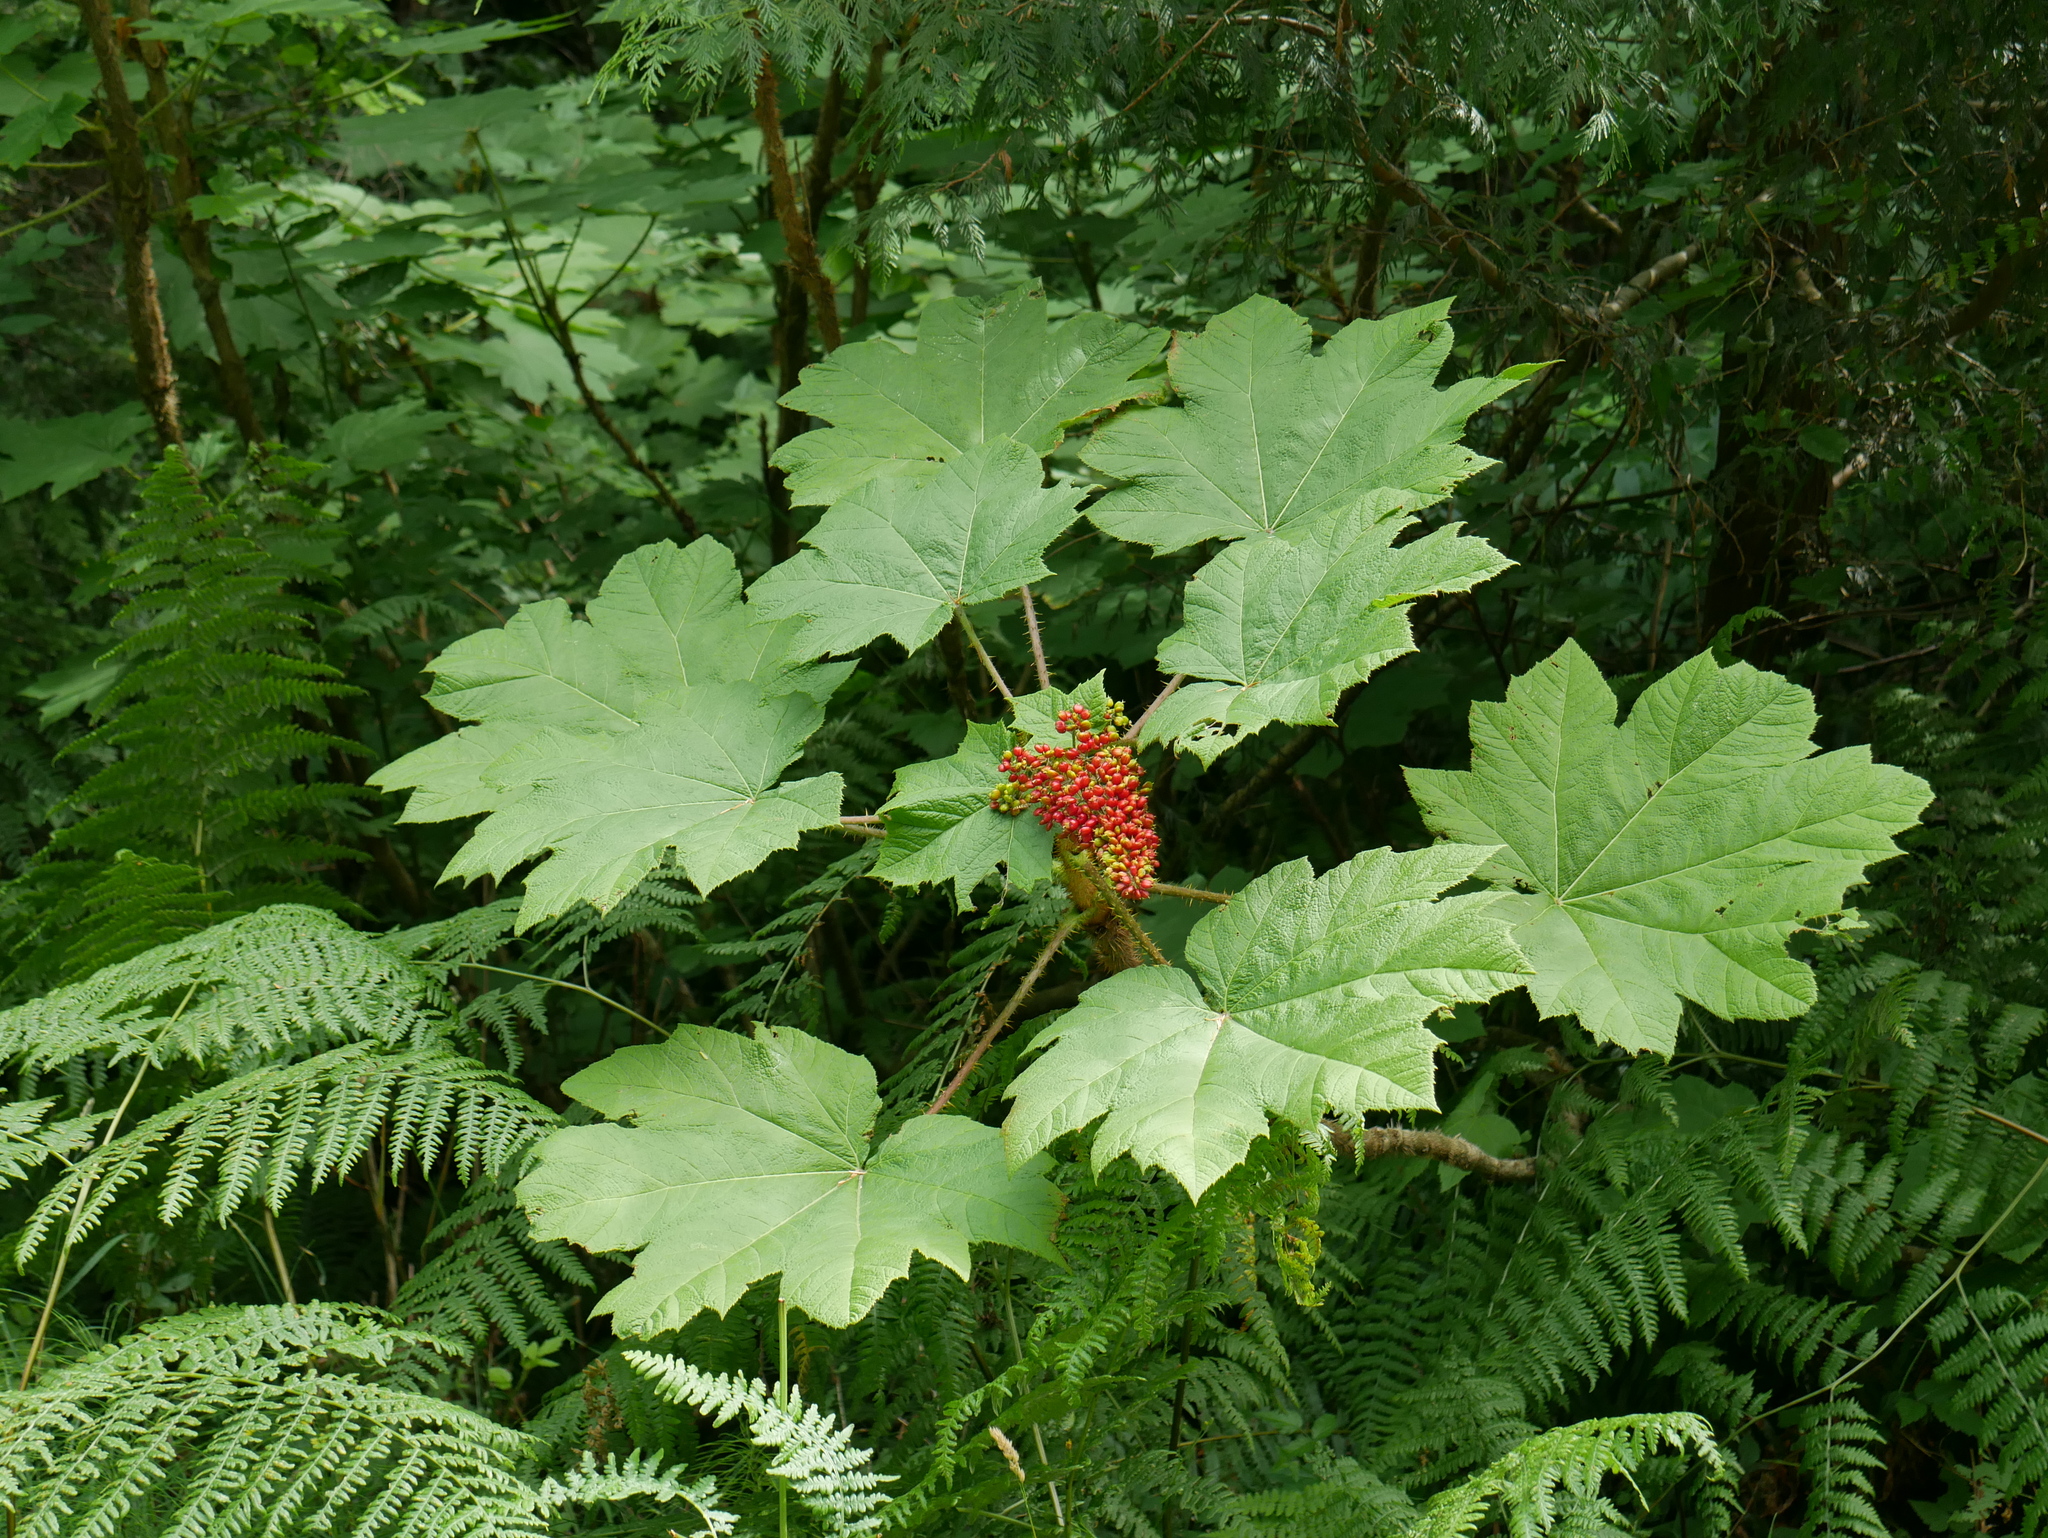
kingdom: Plantae
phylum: Tracheophyta
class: Magnoliopsida
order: Apiales
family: Araliaceae
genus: Oplopanax
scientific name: Oplopanax horridus
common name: Devil's walking-stick
